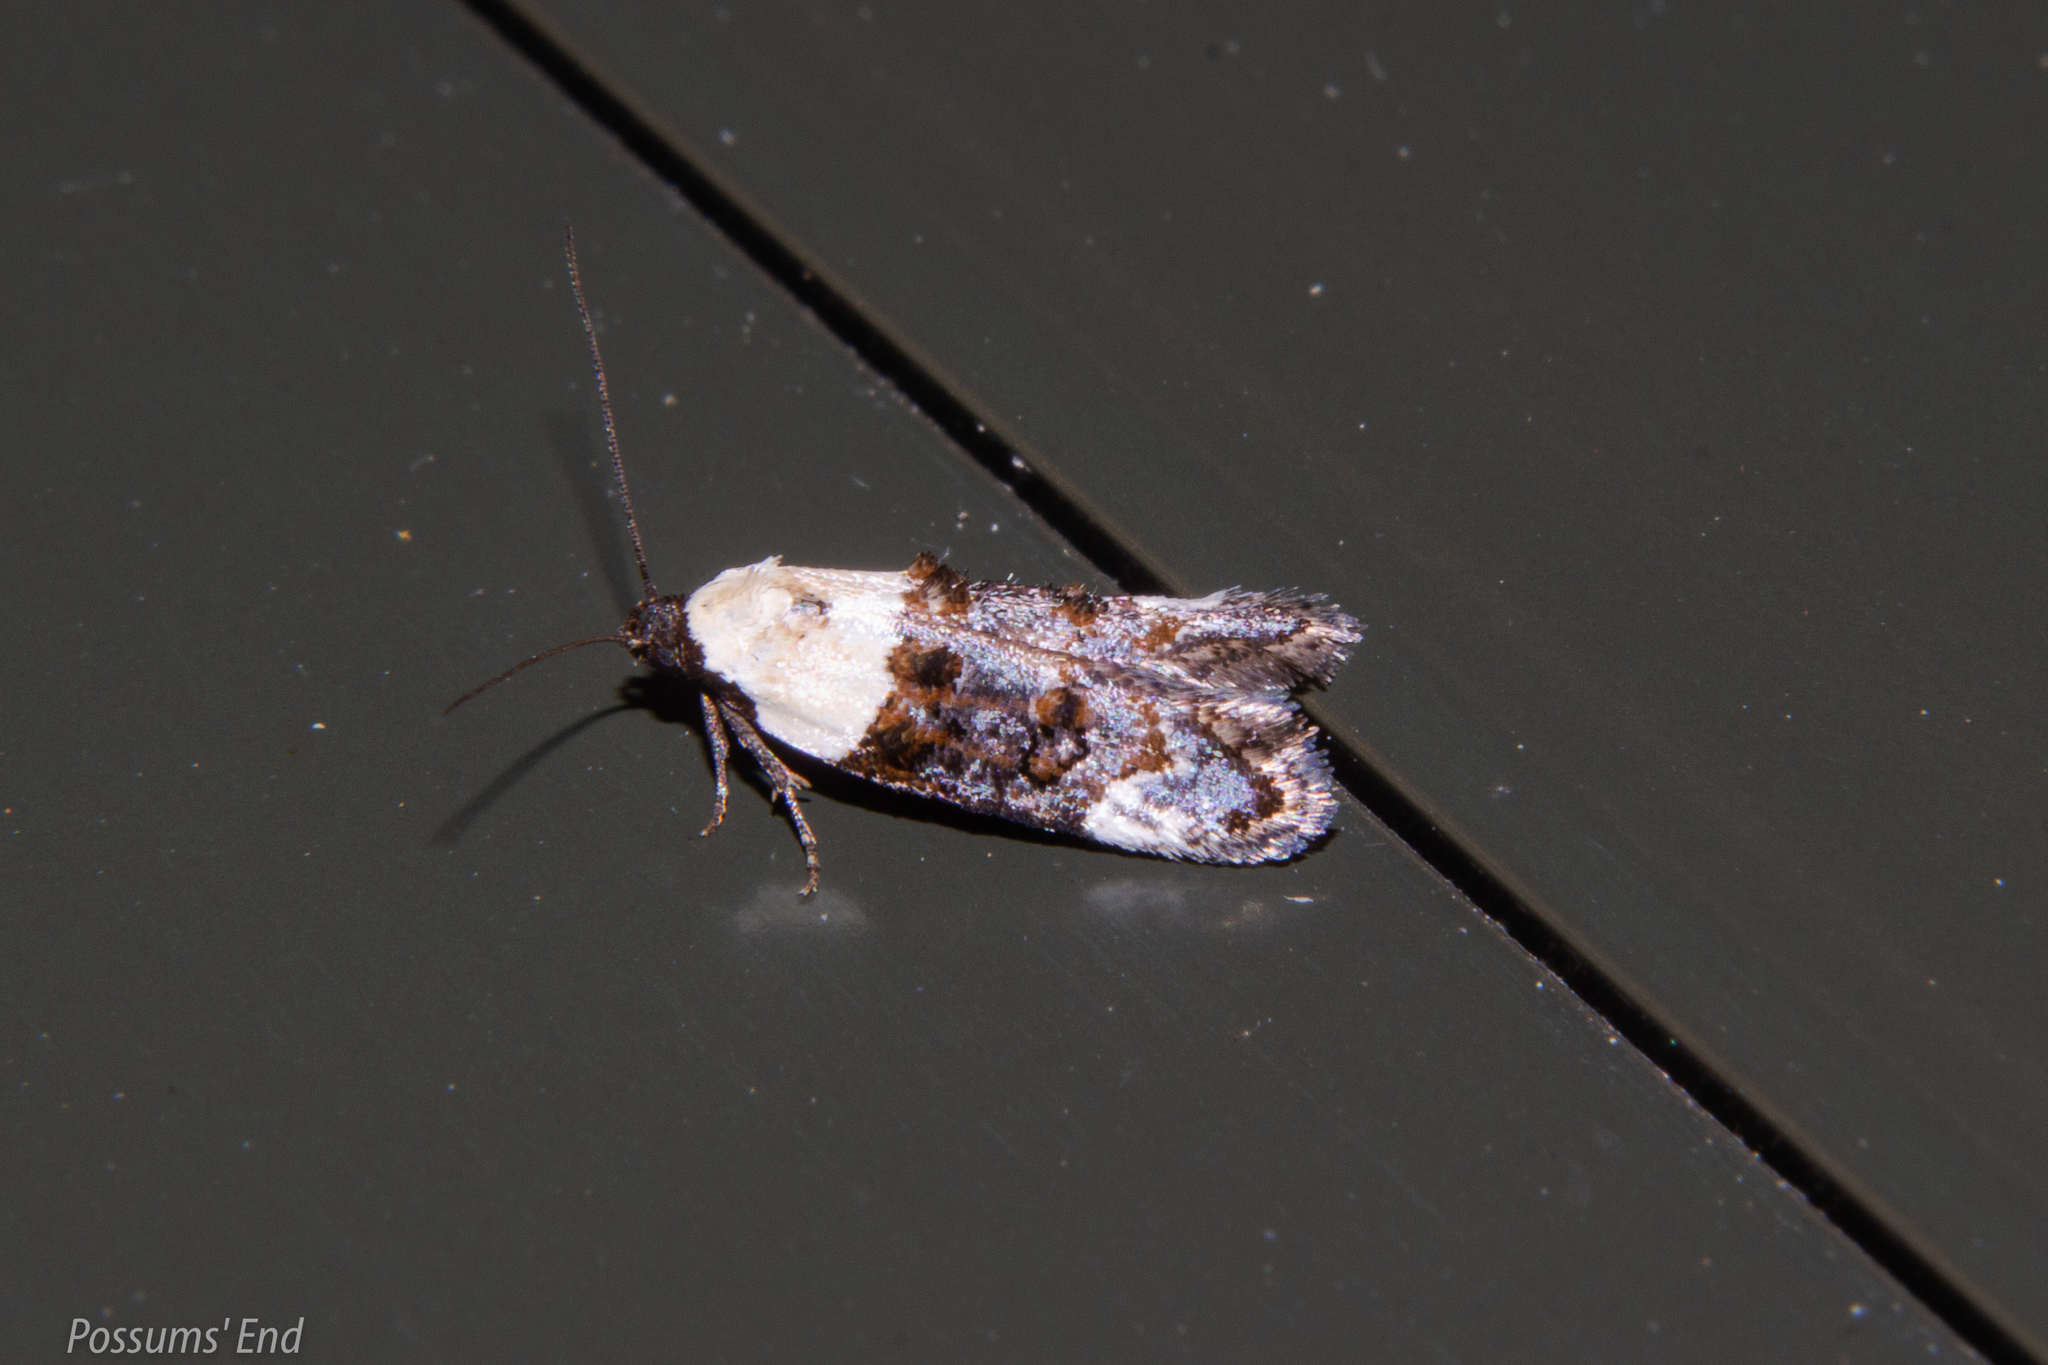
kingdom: Animalia
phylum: Arthropoda
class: Insecta
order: Lepidoptera
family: Oecophoridae
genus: Trachypepla
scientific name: Trachypepla euryleucota
